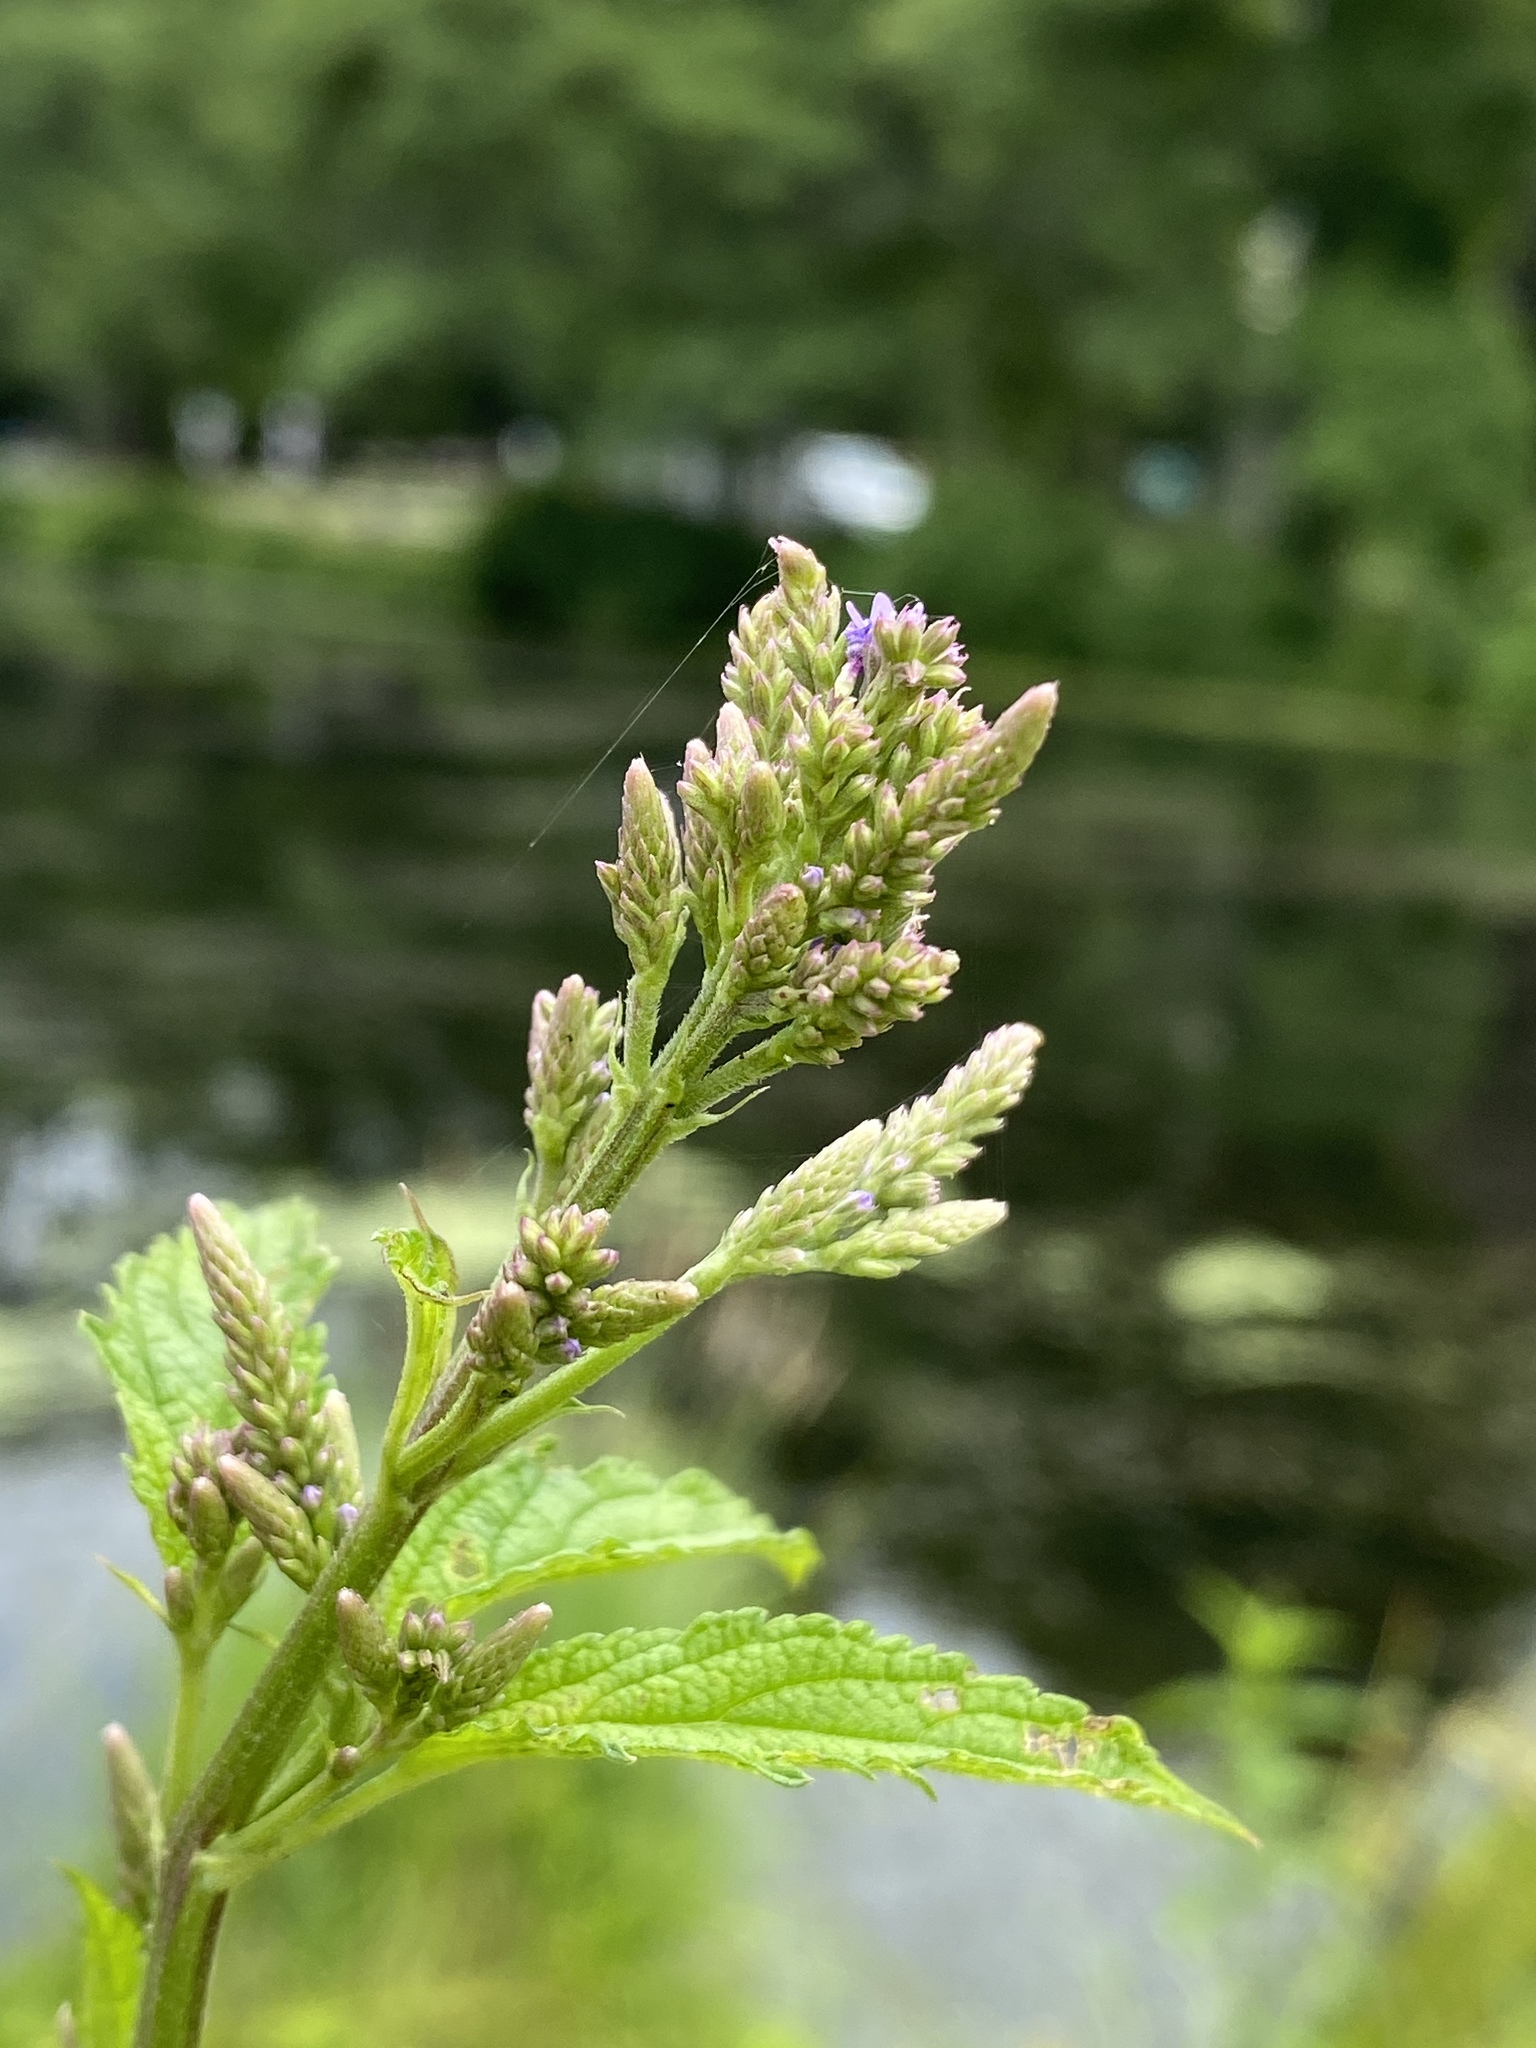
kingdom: Plantae
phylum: Tracheophyta
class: Magnoliopsida
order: Lamiales
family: Verbenaceae
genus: Verbena
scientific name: Verbena hastata
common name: American blue vervain
